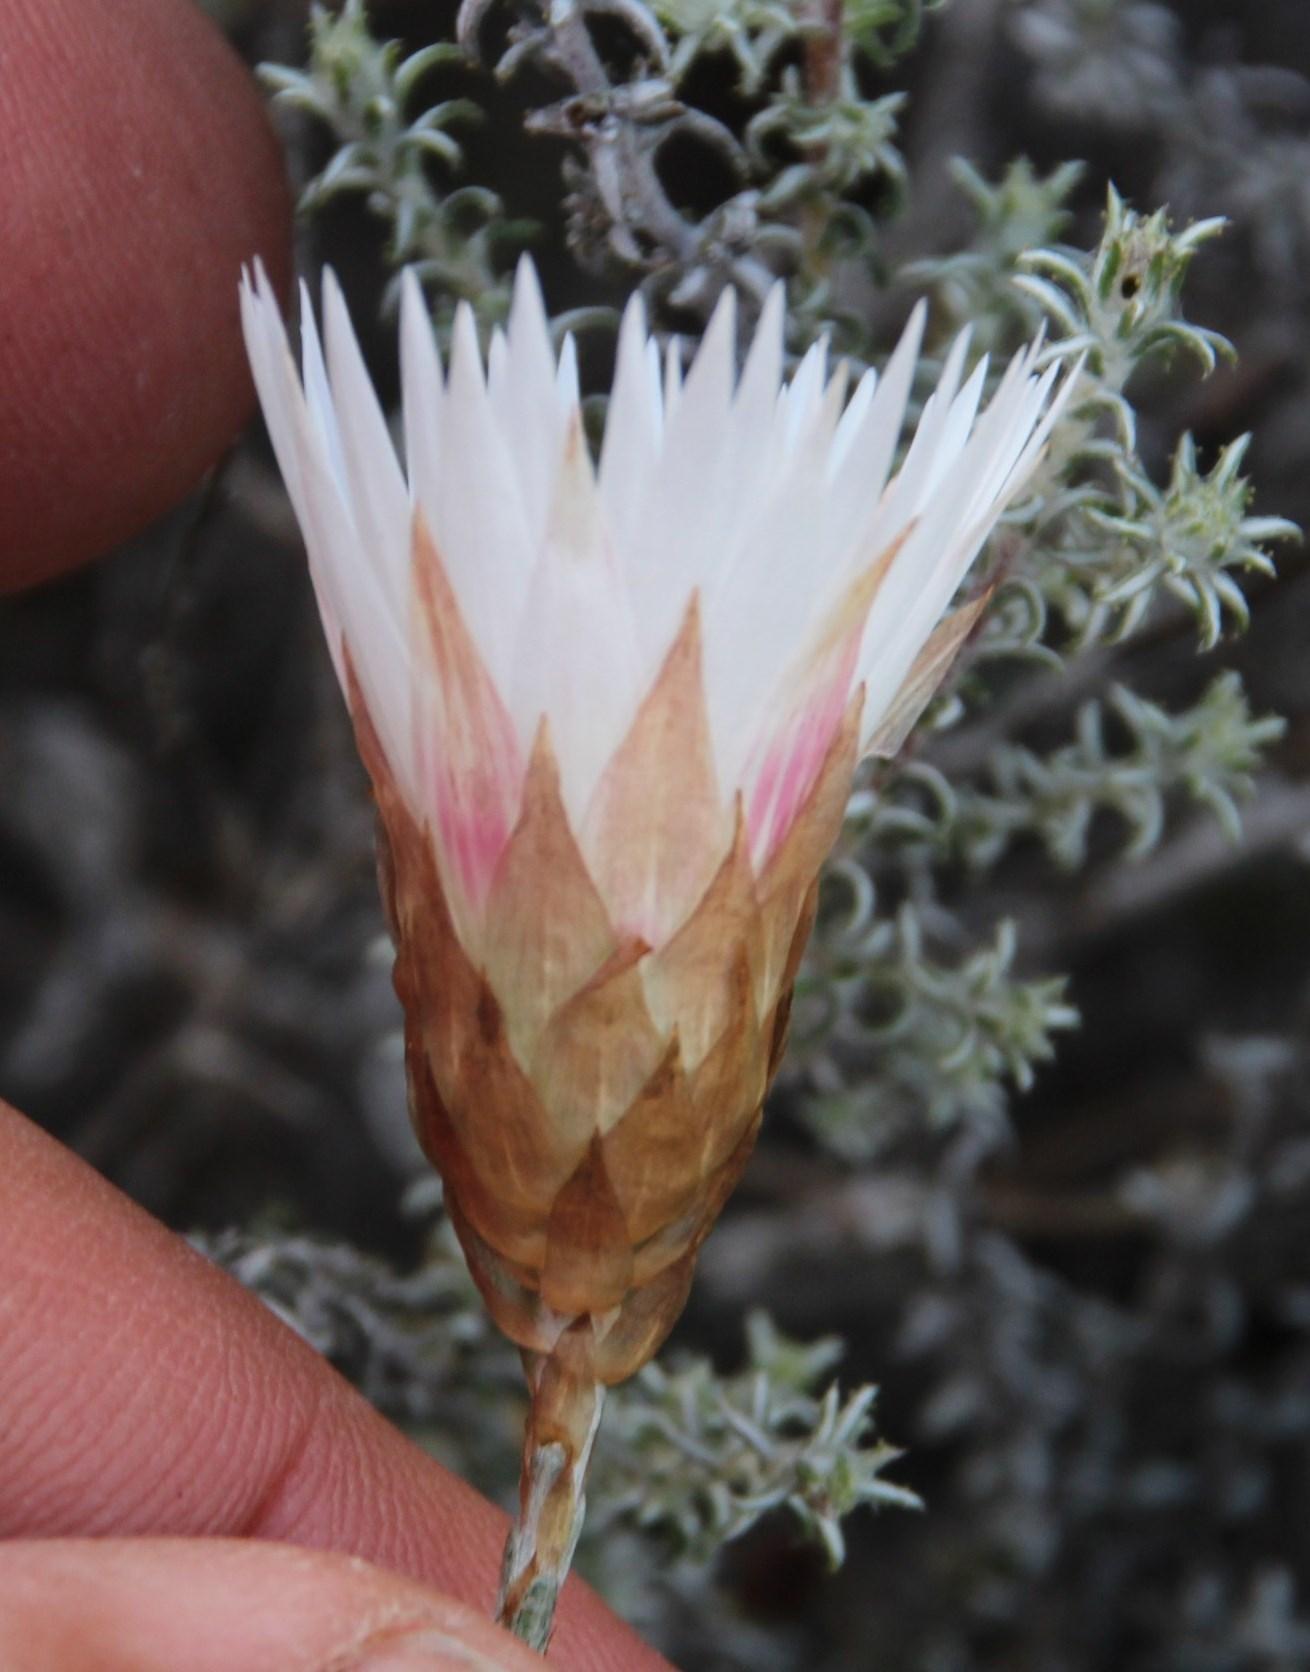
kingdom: Plantae
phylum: Tracheophyta
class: Magnoliopsida
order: Asterales
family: Asteraceae
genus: Helichrysum
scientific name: Helichrysum lancifolium
